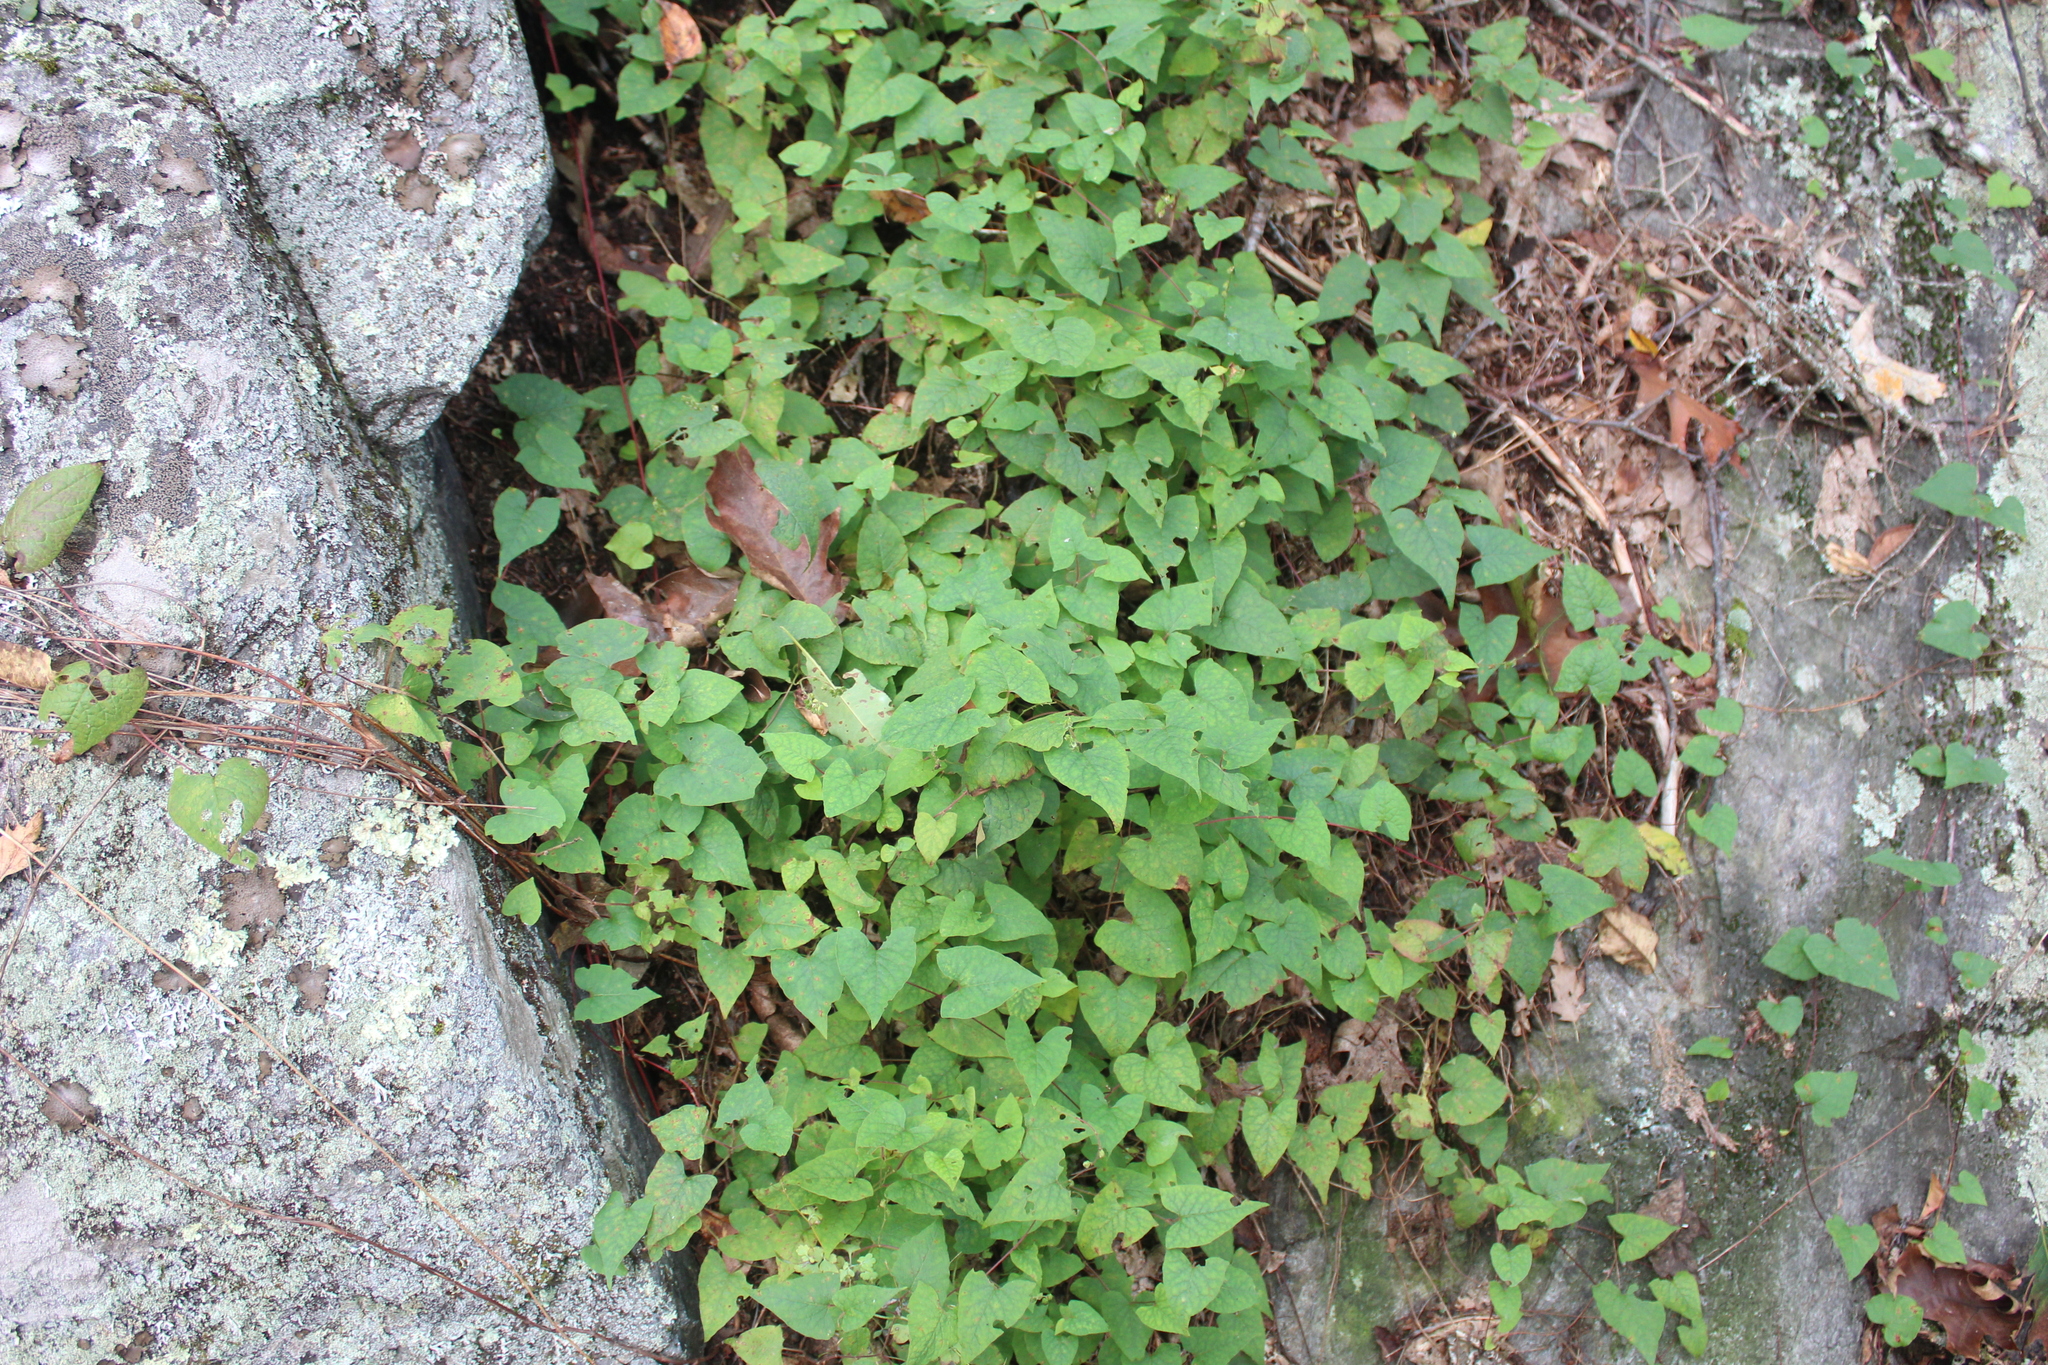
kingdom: Plantae
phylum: Tracheophyta
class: Magnoliopsida
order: Caryophyllales
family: Polygonaceae
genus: Parogonum
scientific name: Parogonum ciliinode
